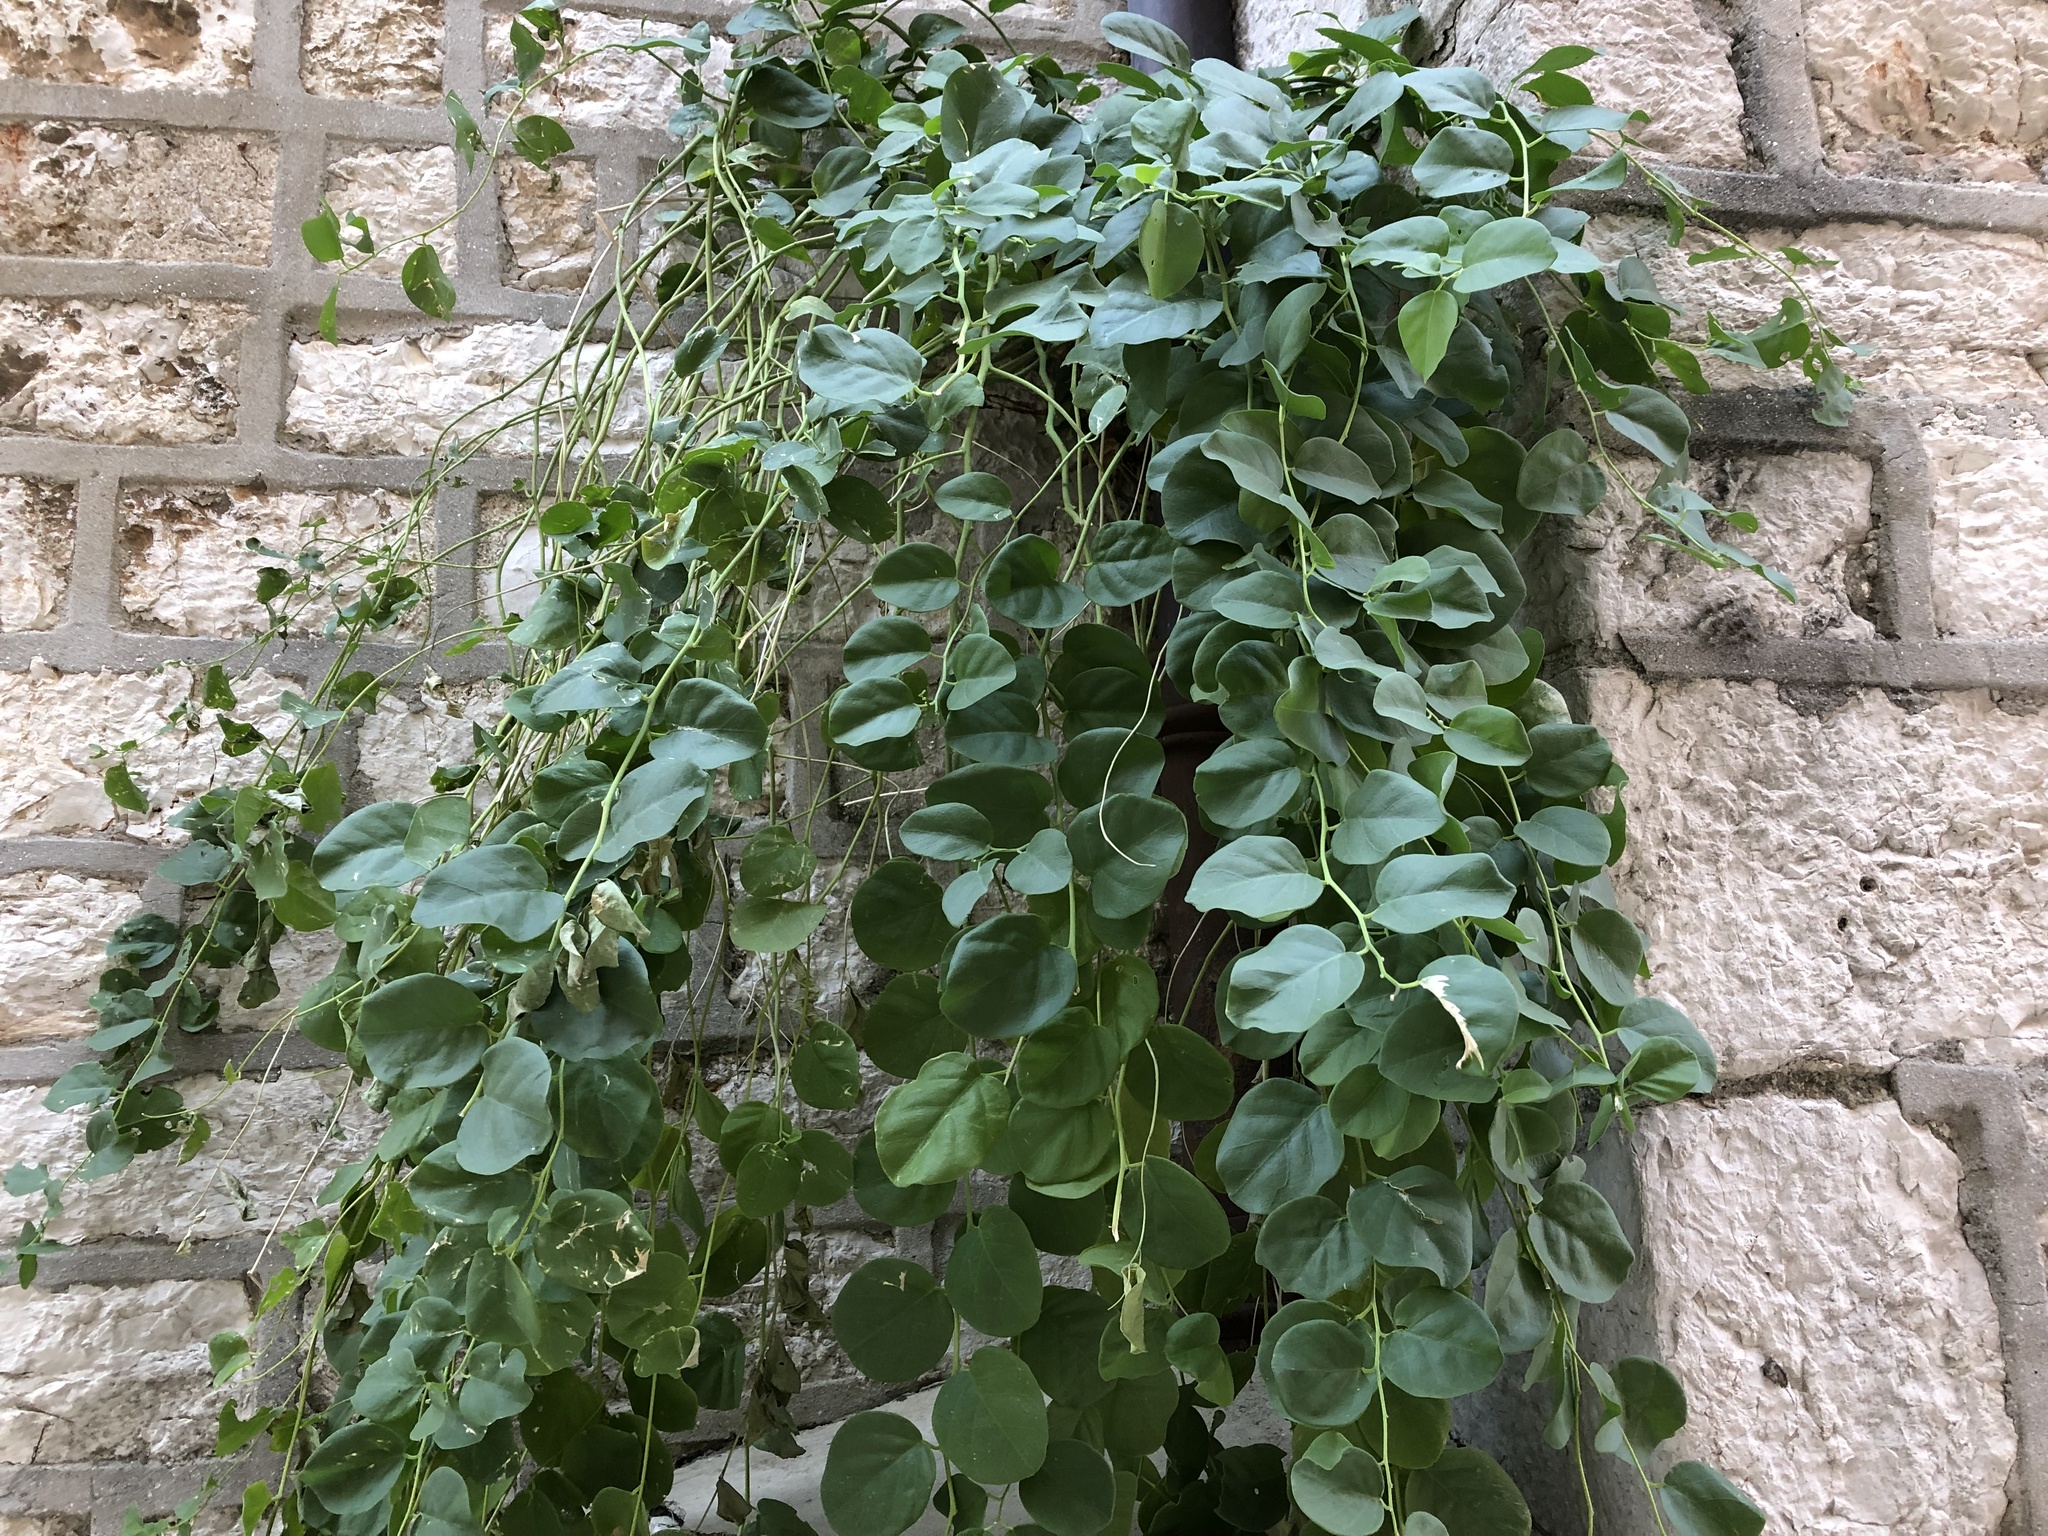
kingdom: Plantae
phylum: Tracheophyta
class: Magnoliopsida
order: Brassicales
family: Capparaceae
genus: Capparis
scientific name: Capparis orientalis
